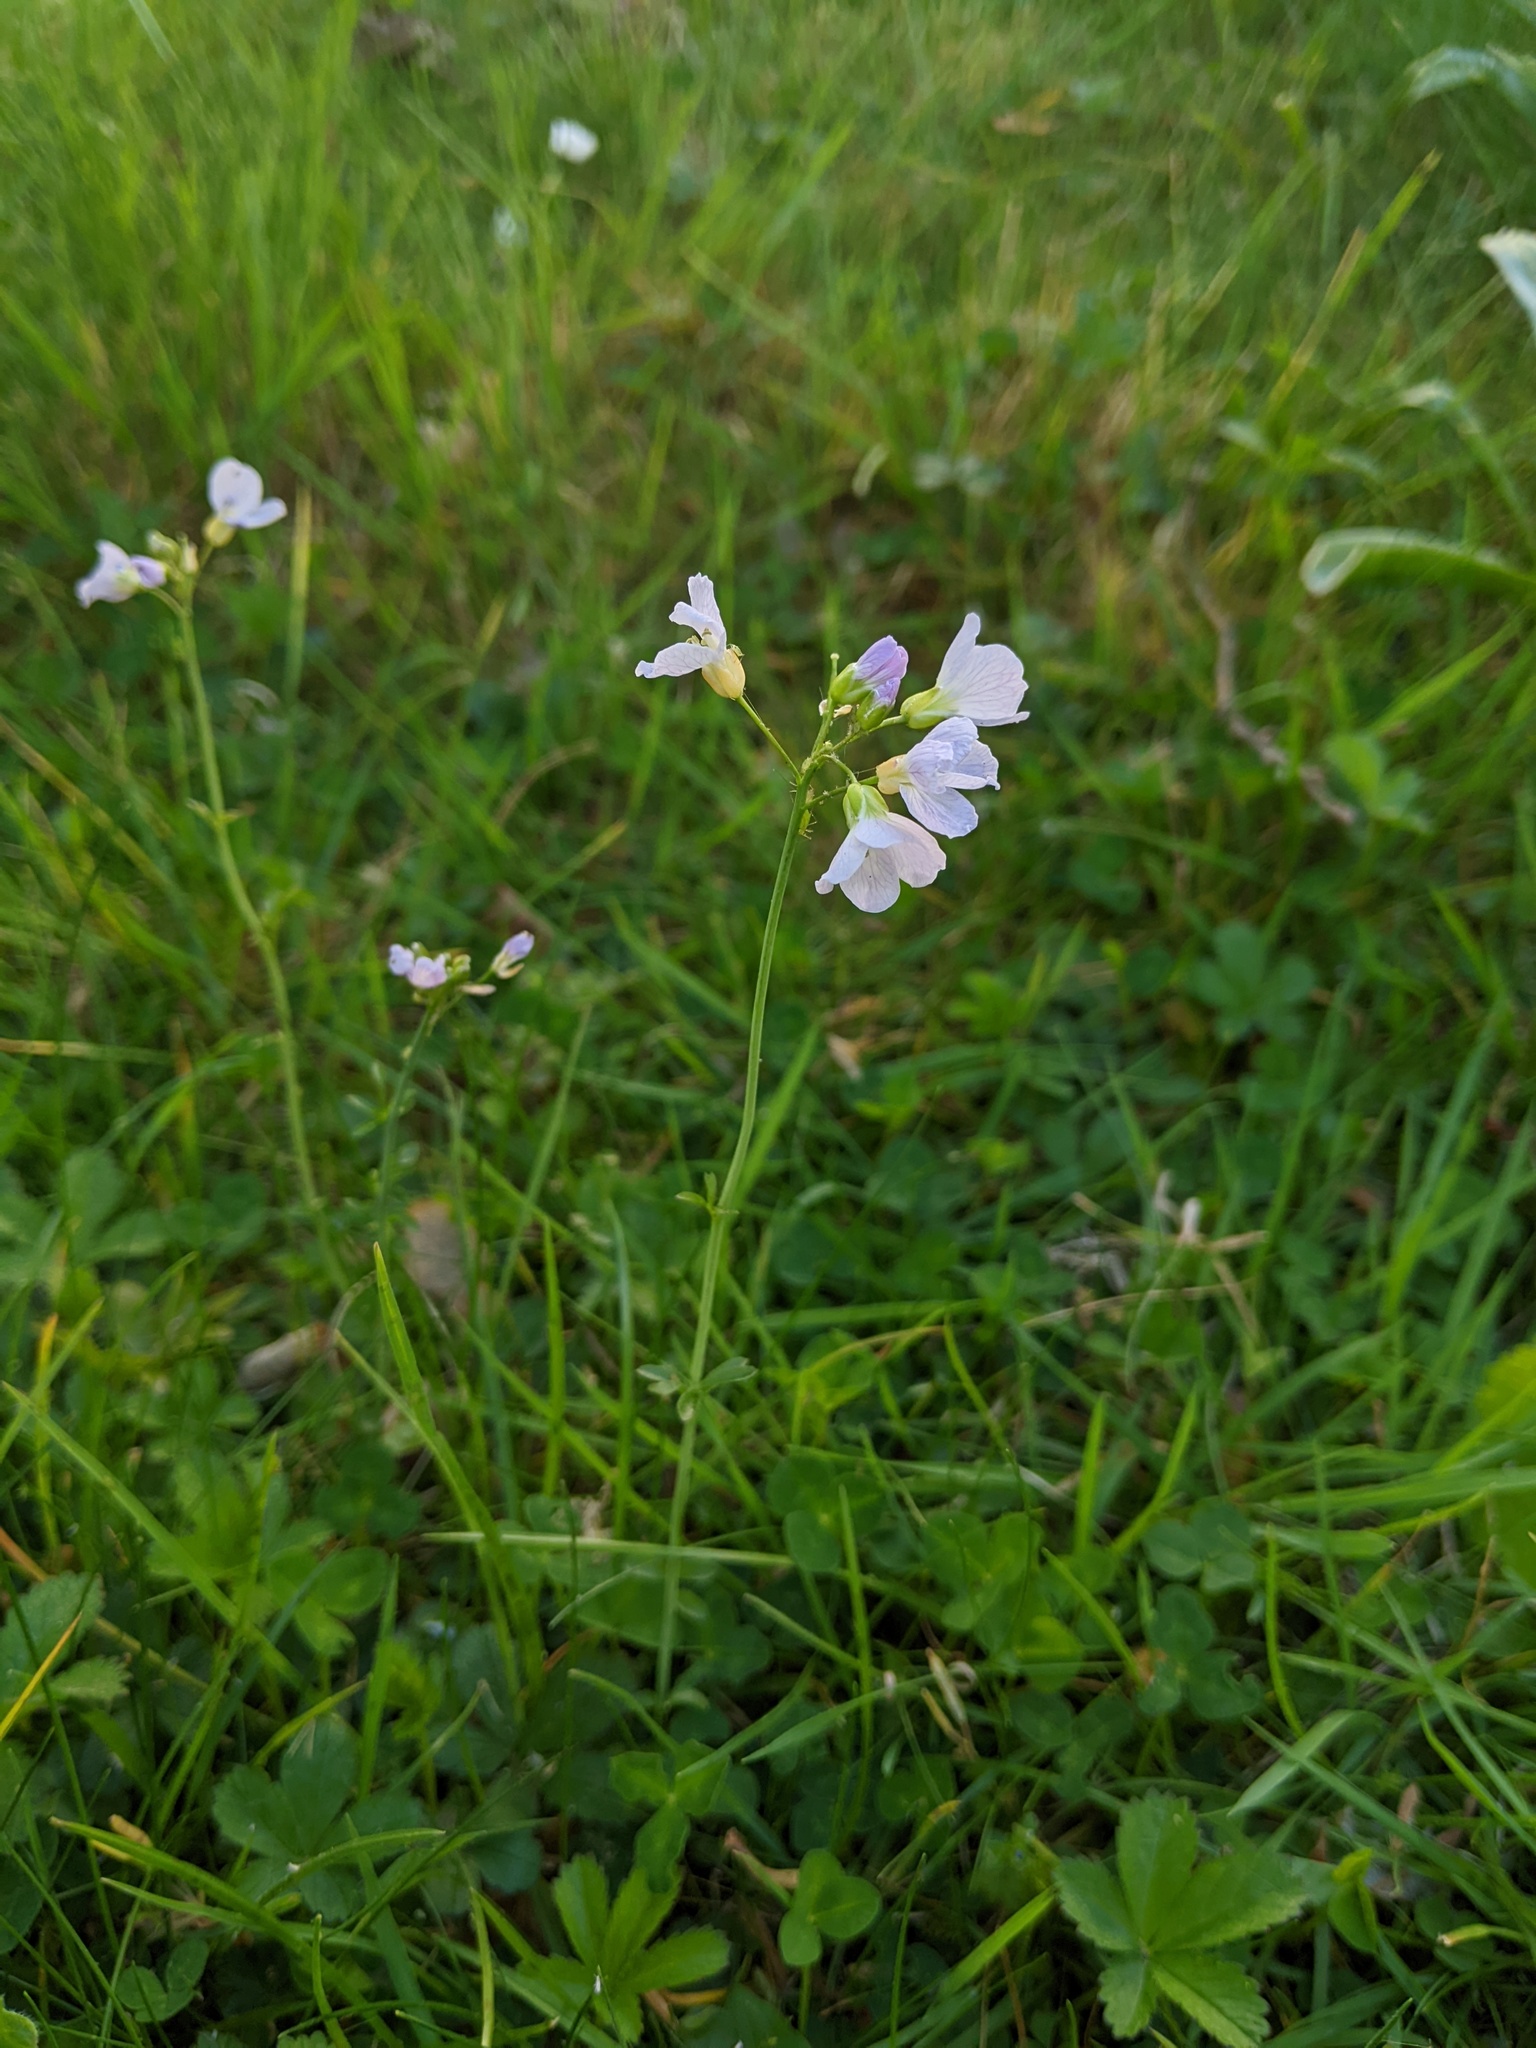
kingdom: Plantae
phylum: Tracheophyta
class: Magnoliopsida
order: Brassicales
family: Brassicaceae
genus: Cardamine
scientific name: Cardamine pratensis
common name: Cuckoo flower
